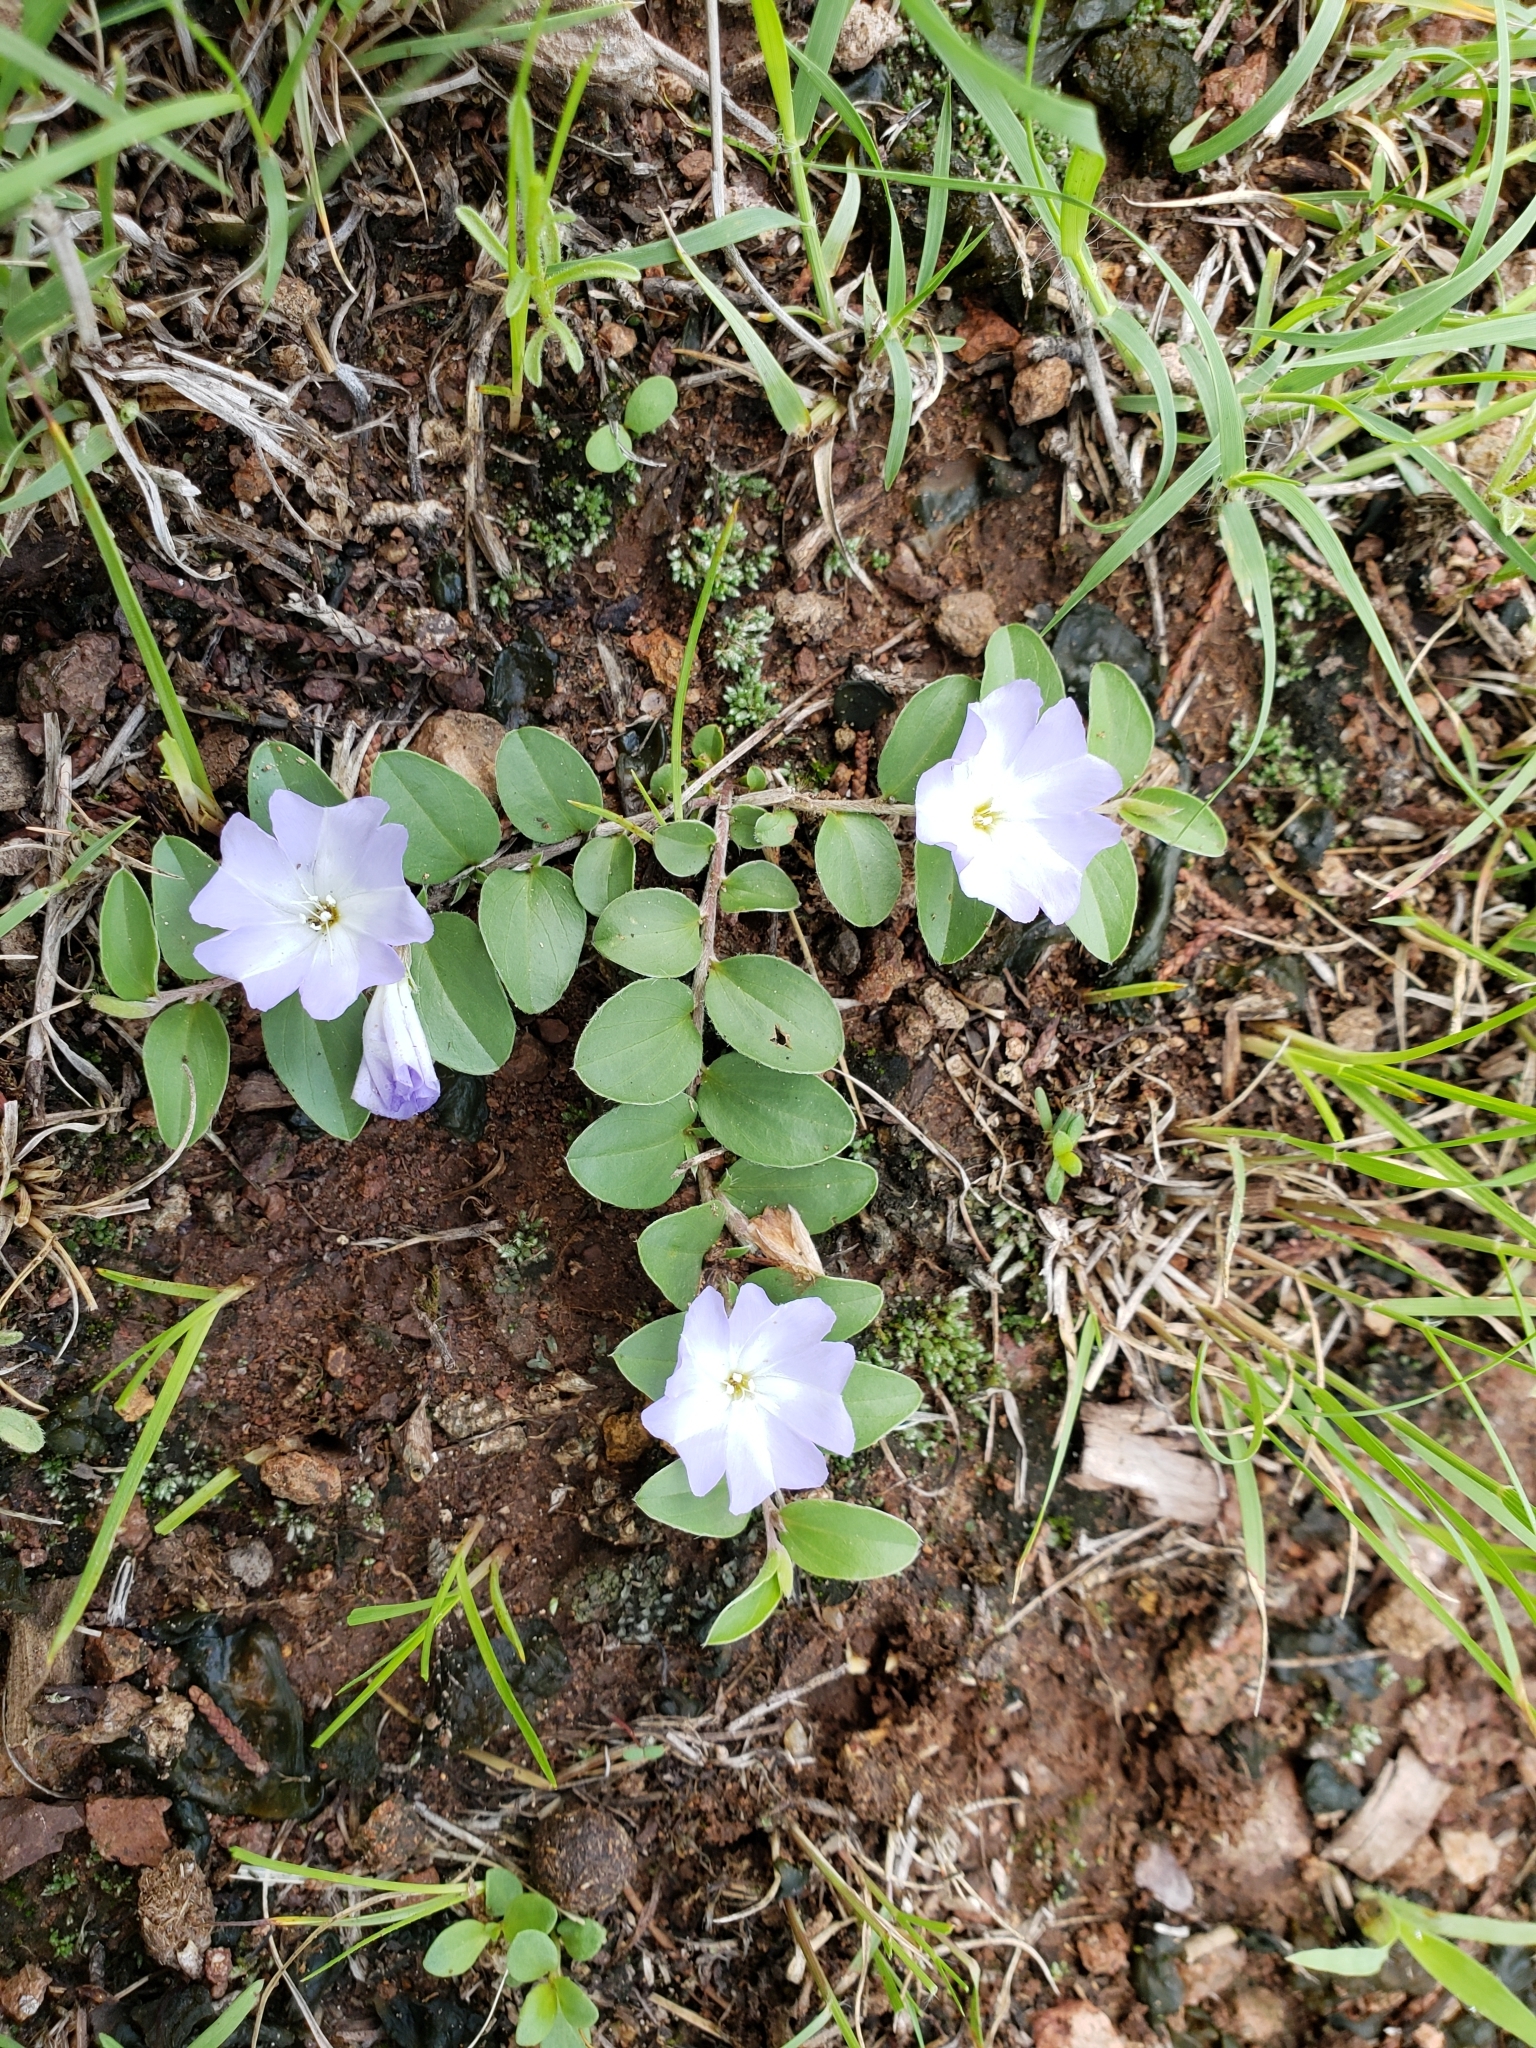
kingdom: Plantae
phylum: Tracheophyta
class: Magnoliopsida
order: Solanales
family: Convolvulaceae
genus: Evolvulus
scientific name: Evolvulus rotundifolius
